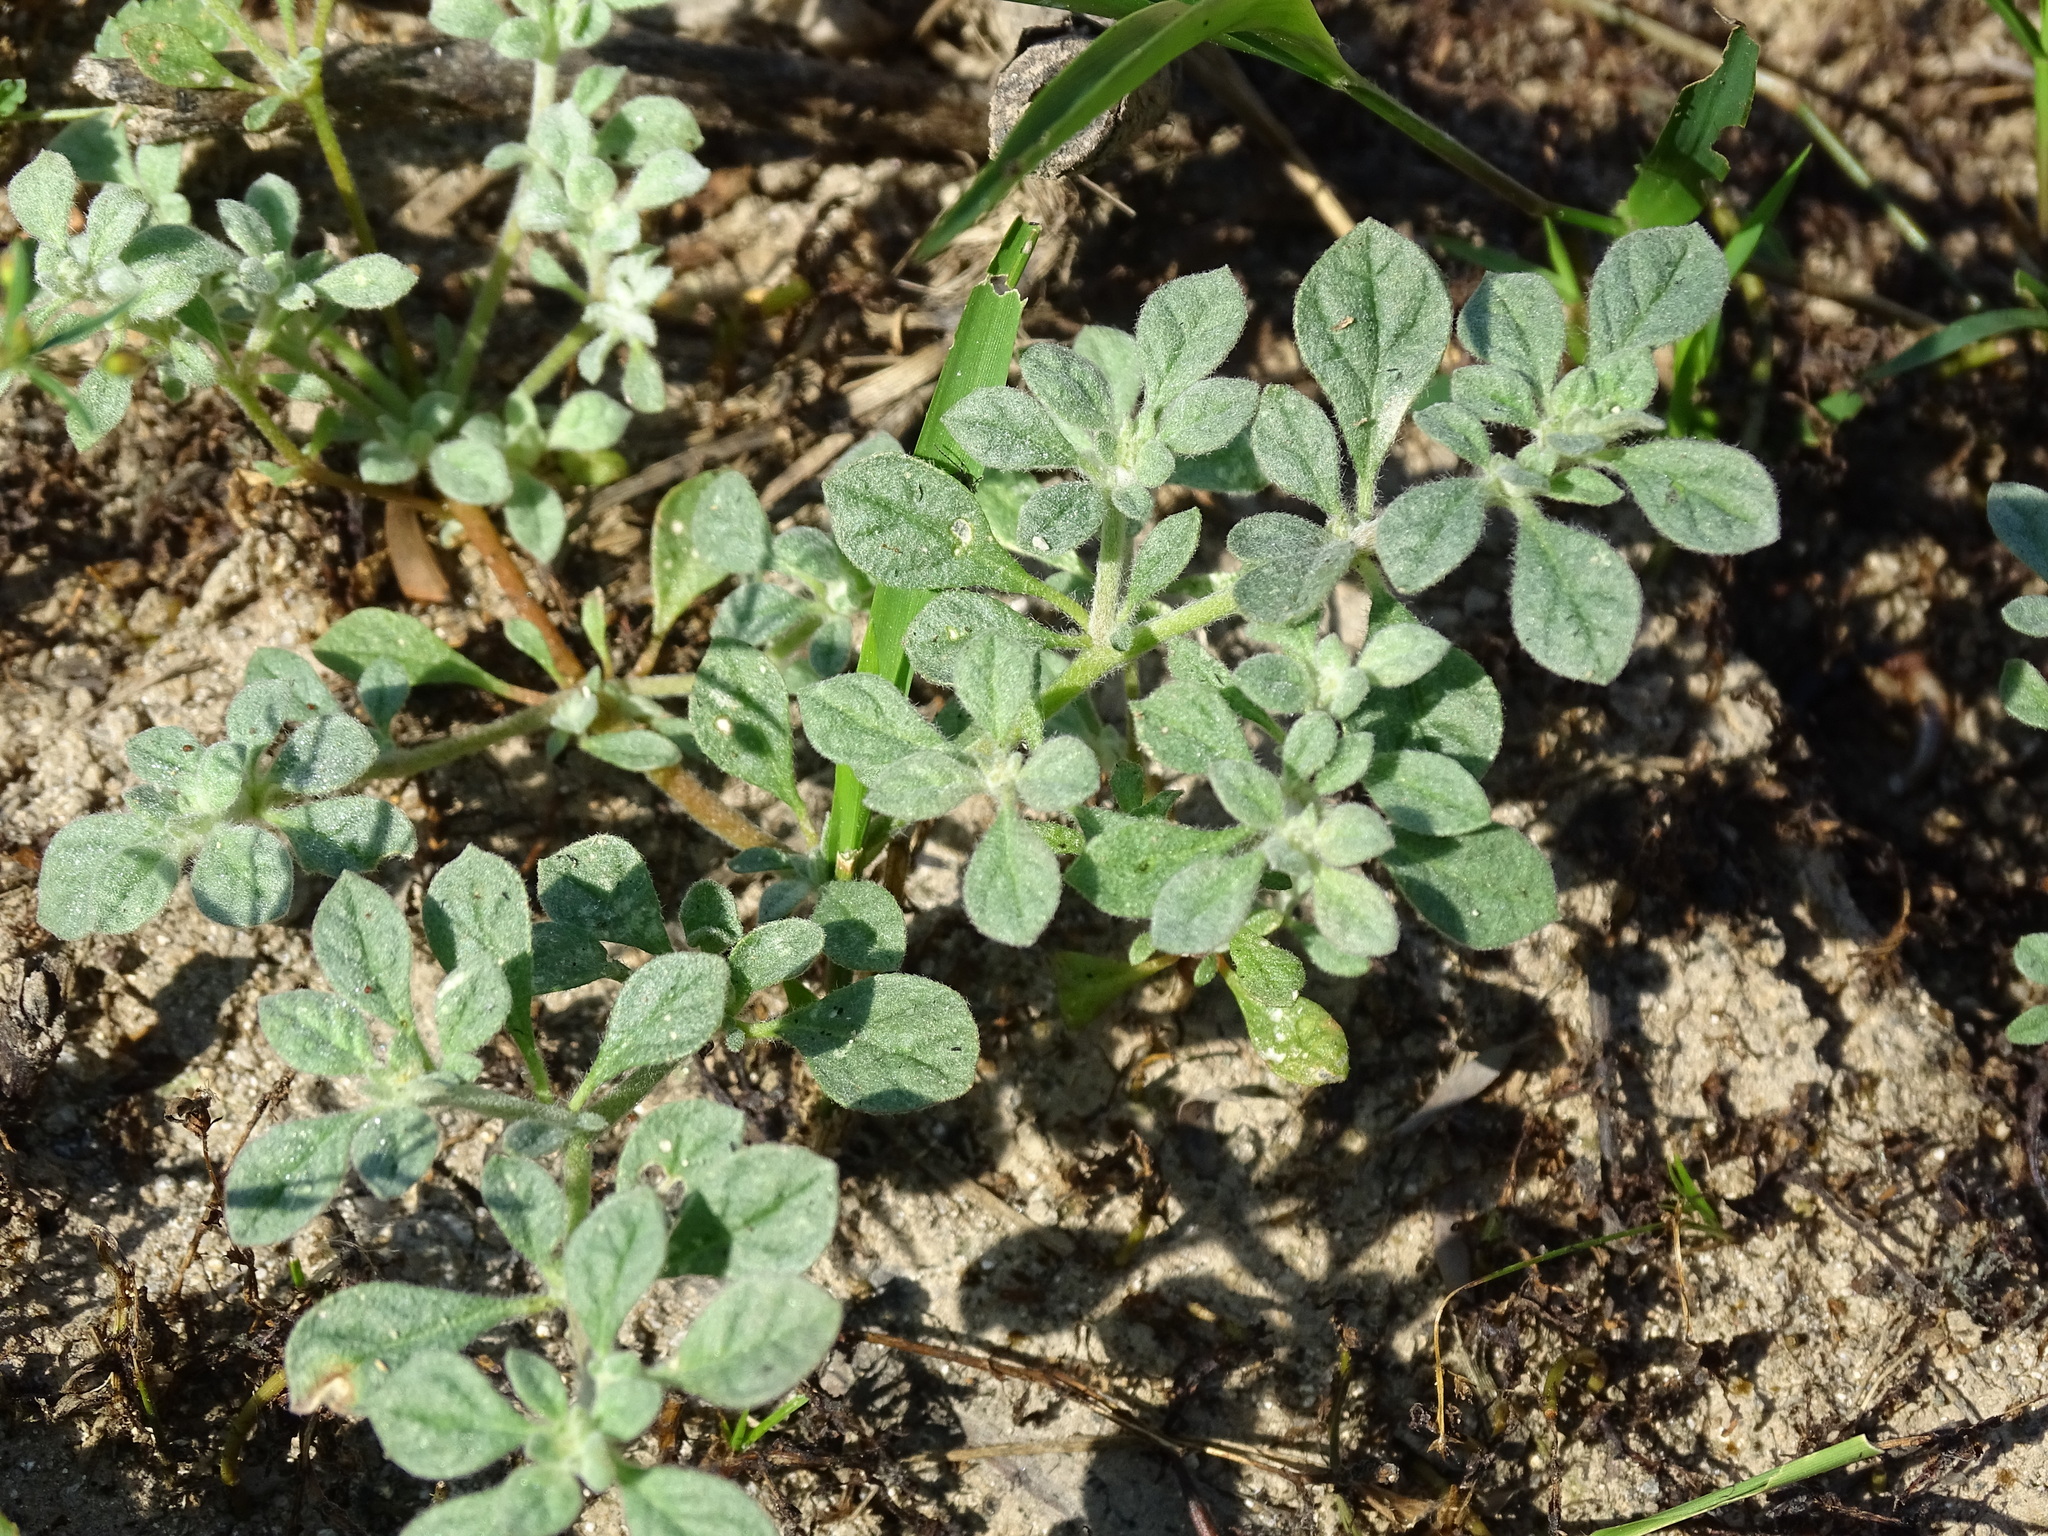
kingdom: Plantae
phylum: Tracheophyta
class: Magnoliopsida
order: Caryophyllales
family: Molluginaceae
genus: Glinus
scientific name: Glinus radiatus
